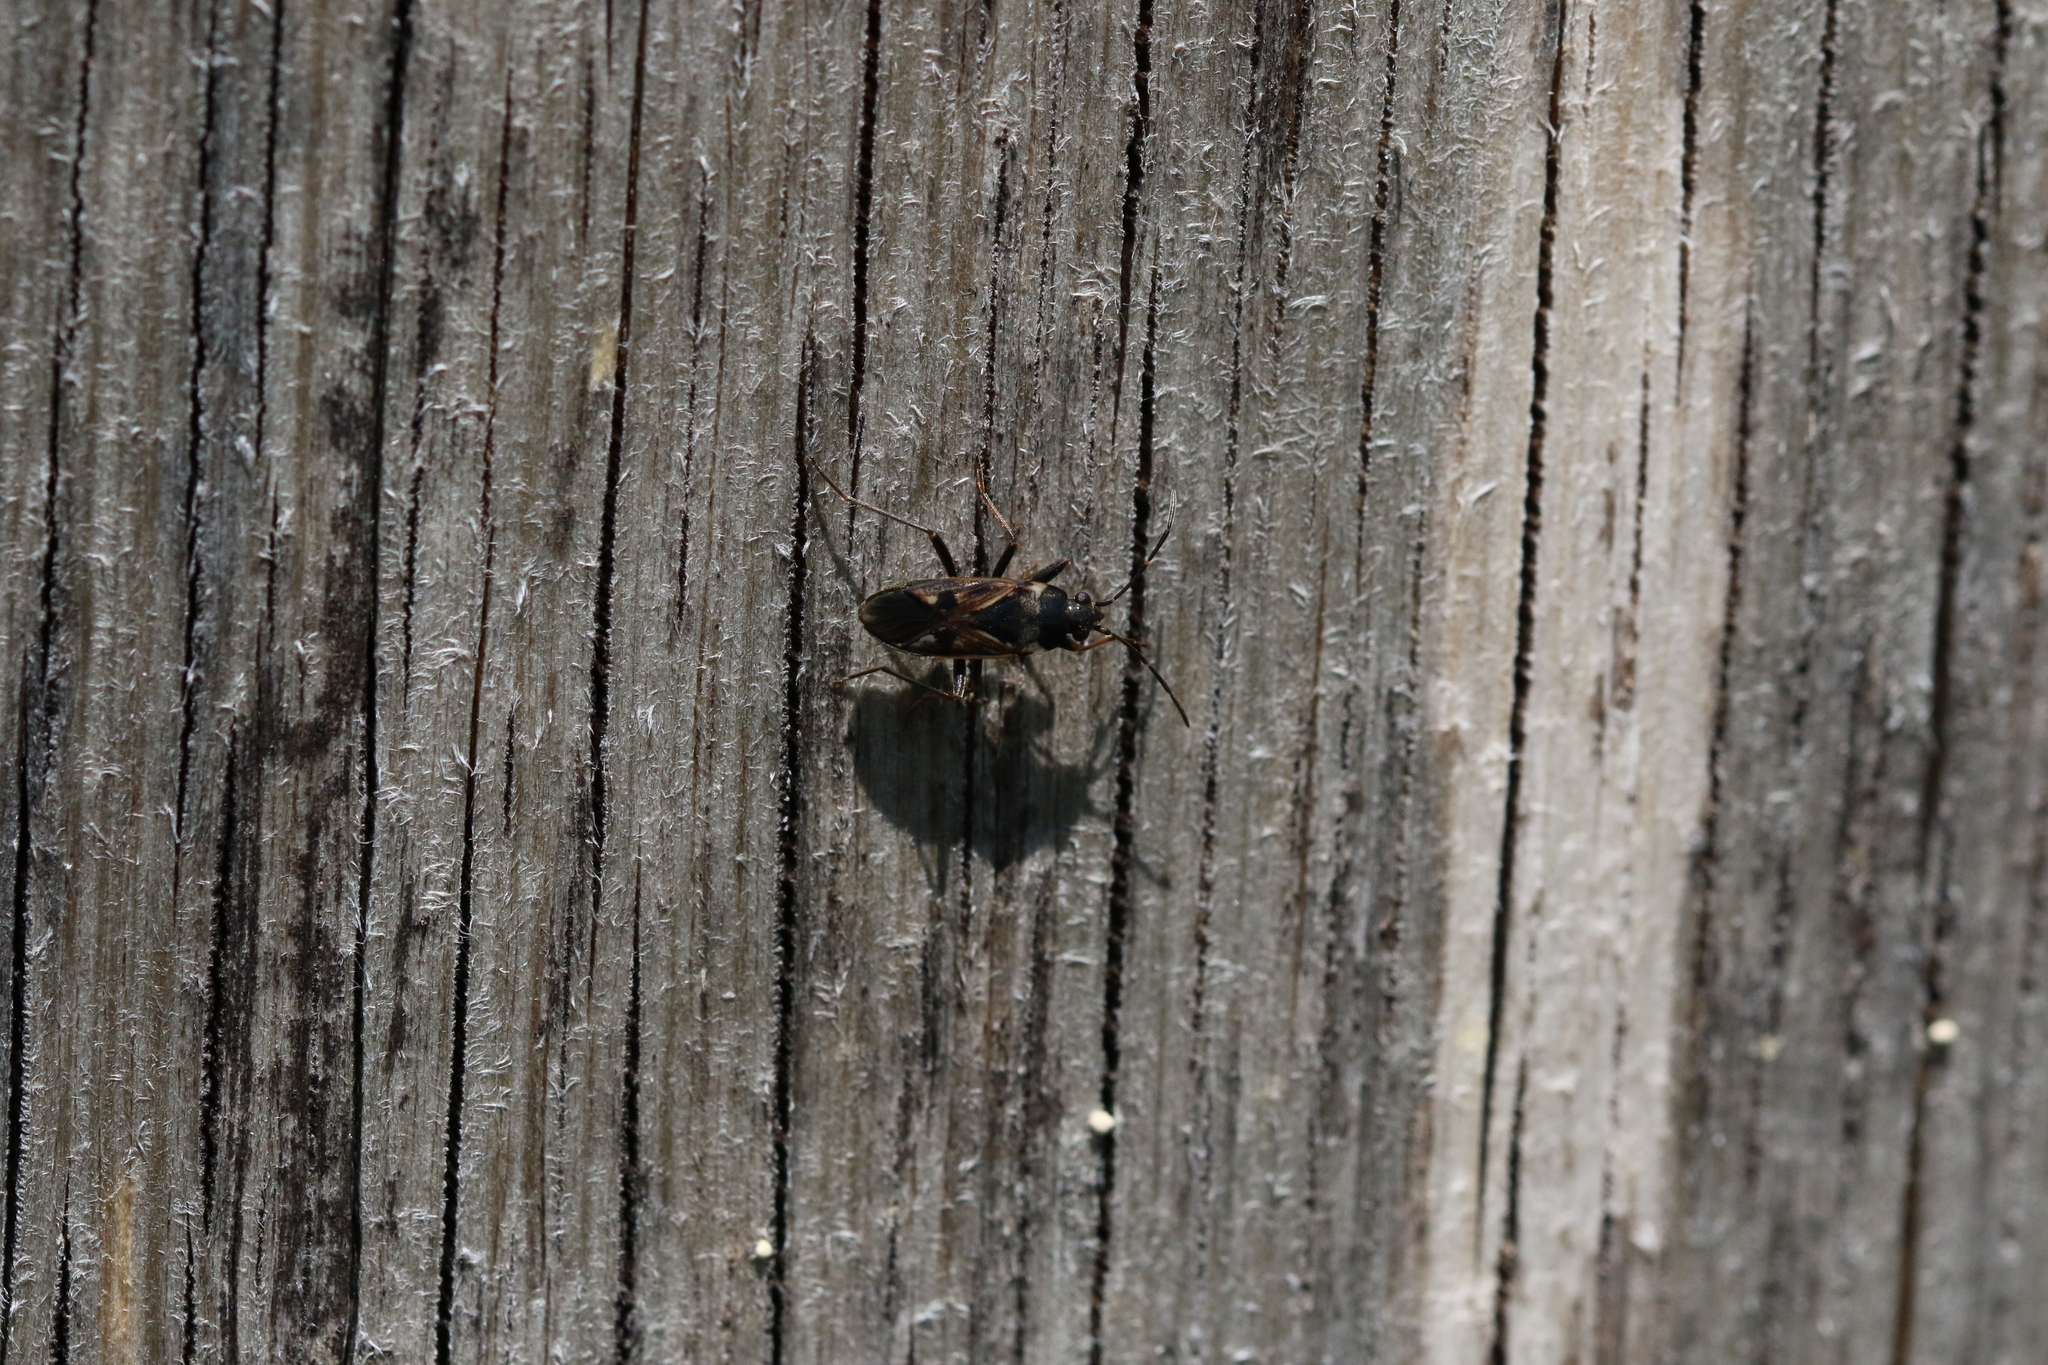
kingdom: Animalia
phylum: Arthropoda
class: Insecta
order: Hemiptera
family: Rhyparochromidae
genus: Rhyparochromus
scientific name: Rhyparochromus vulgaris
